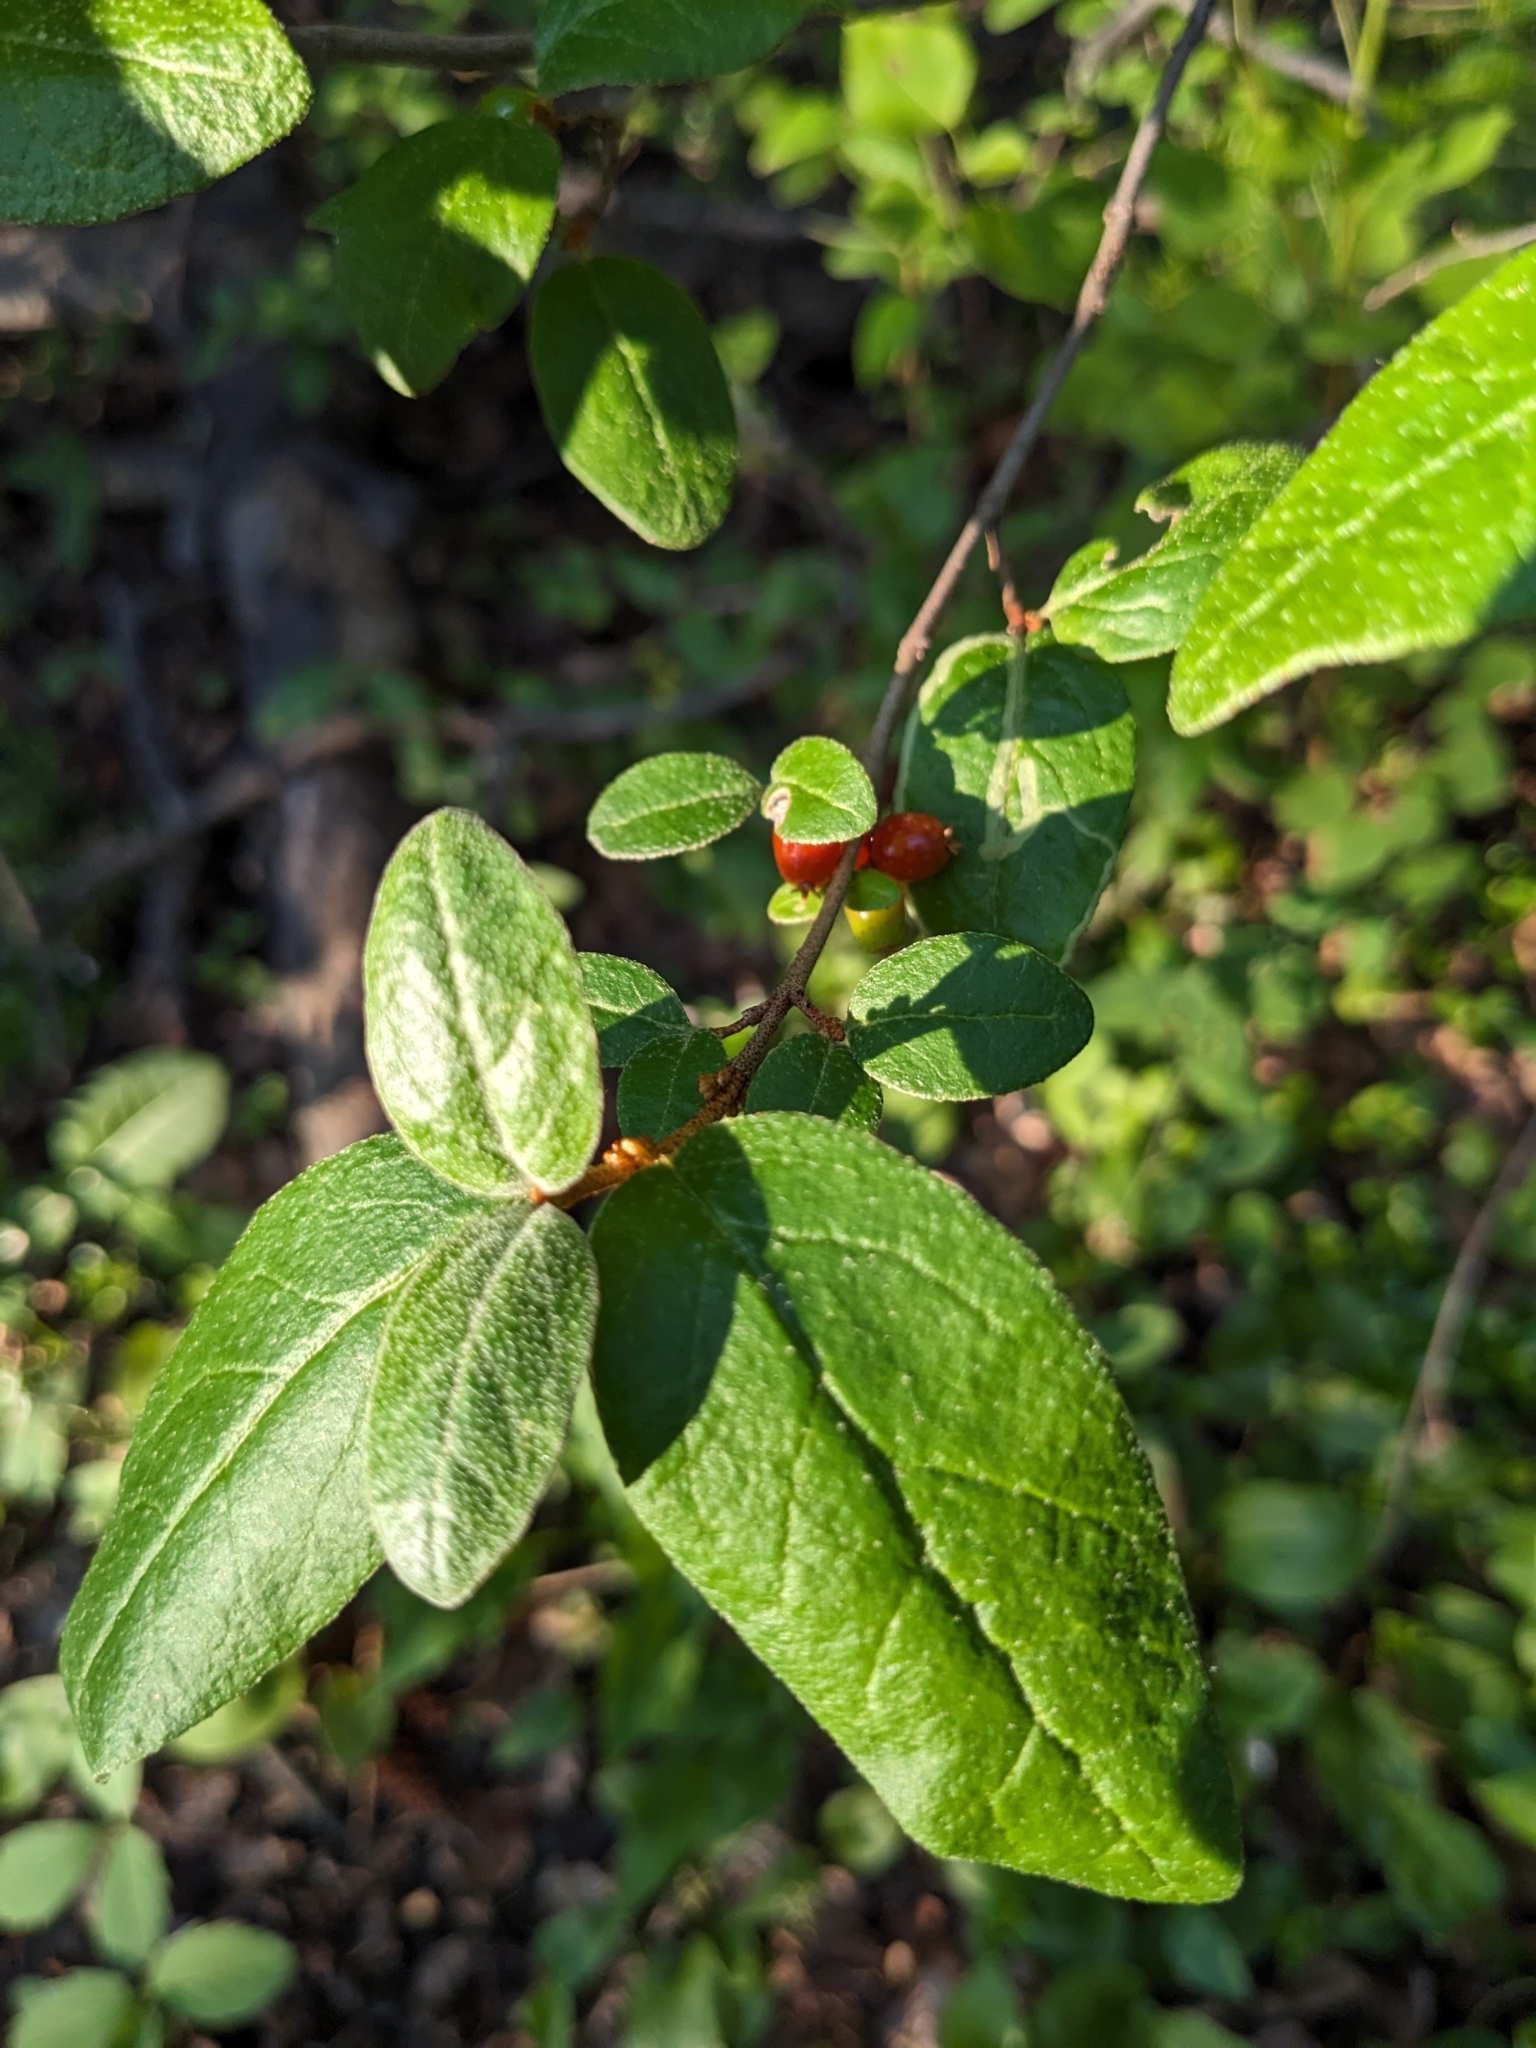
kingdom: Plantae
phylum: Tracheophyta
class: Magnoliopsida
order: Rosales
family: Elaeagnaceae
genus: Shepherdia
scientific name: Shepherdia canadensis
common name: Soapberry
